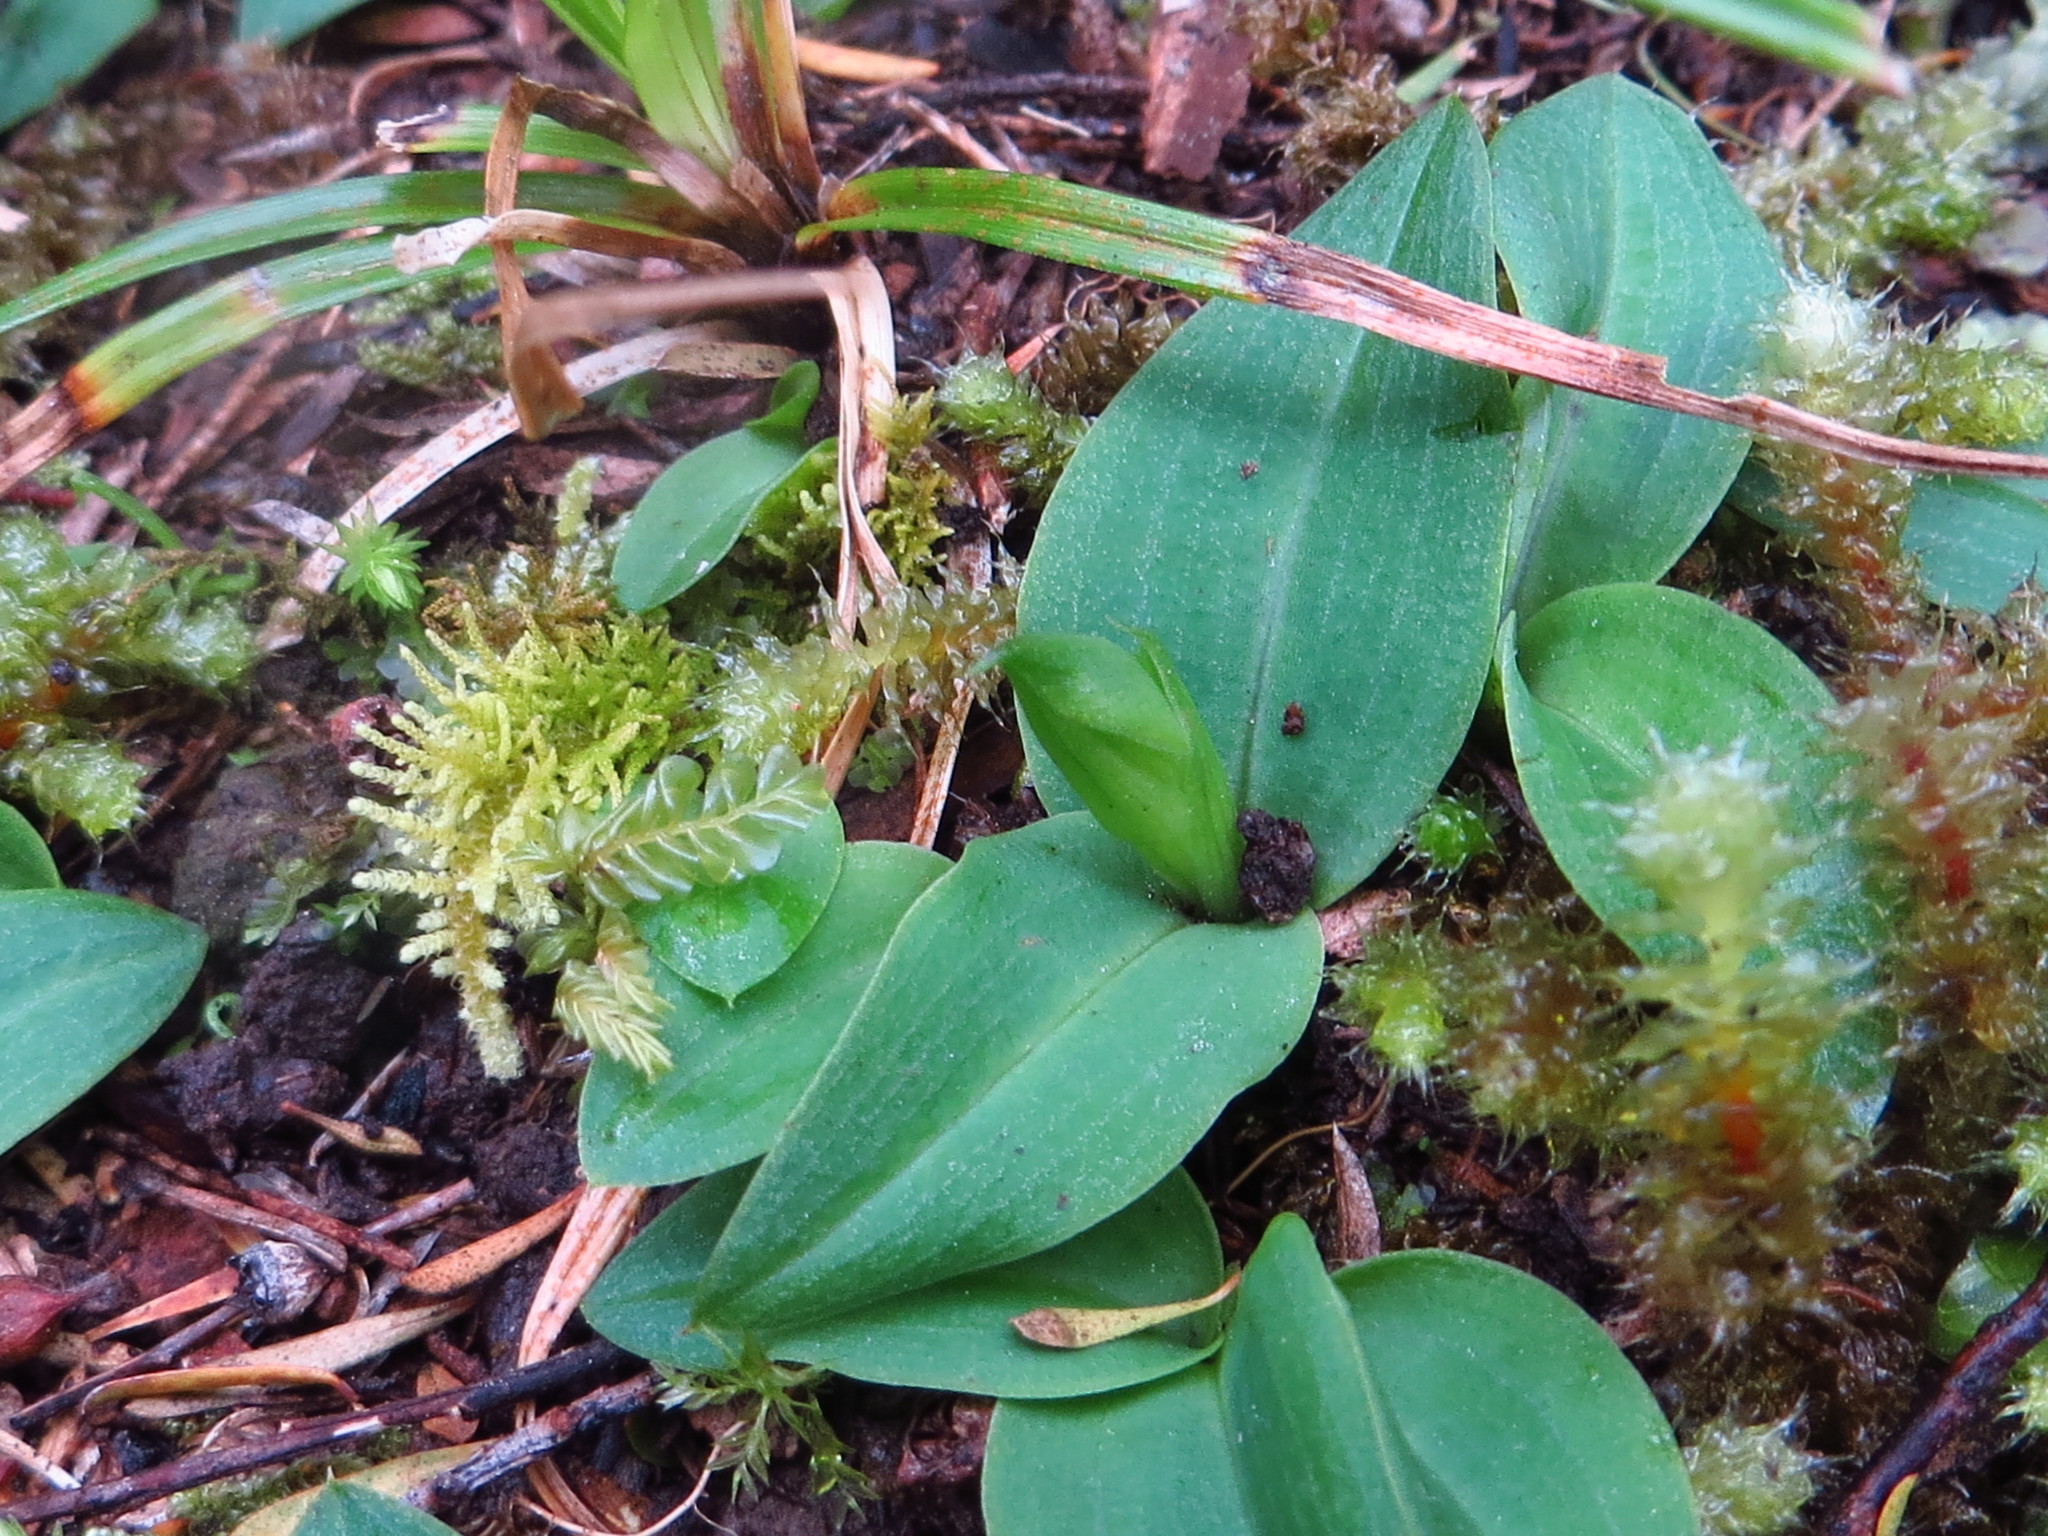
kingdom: Plantae
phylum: Tracheophyta
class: Liliopsida
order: Asparagales
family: Orchidaceae
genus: Chiloglottis
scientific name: Chiloglottis cornuta
